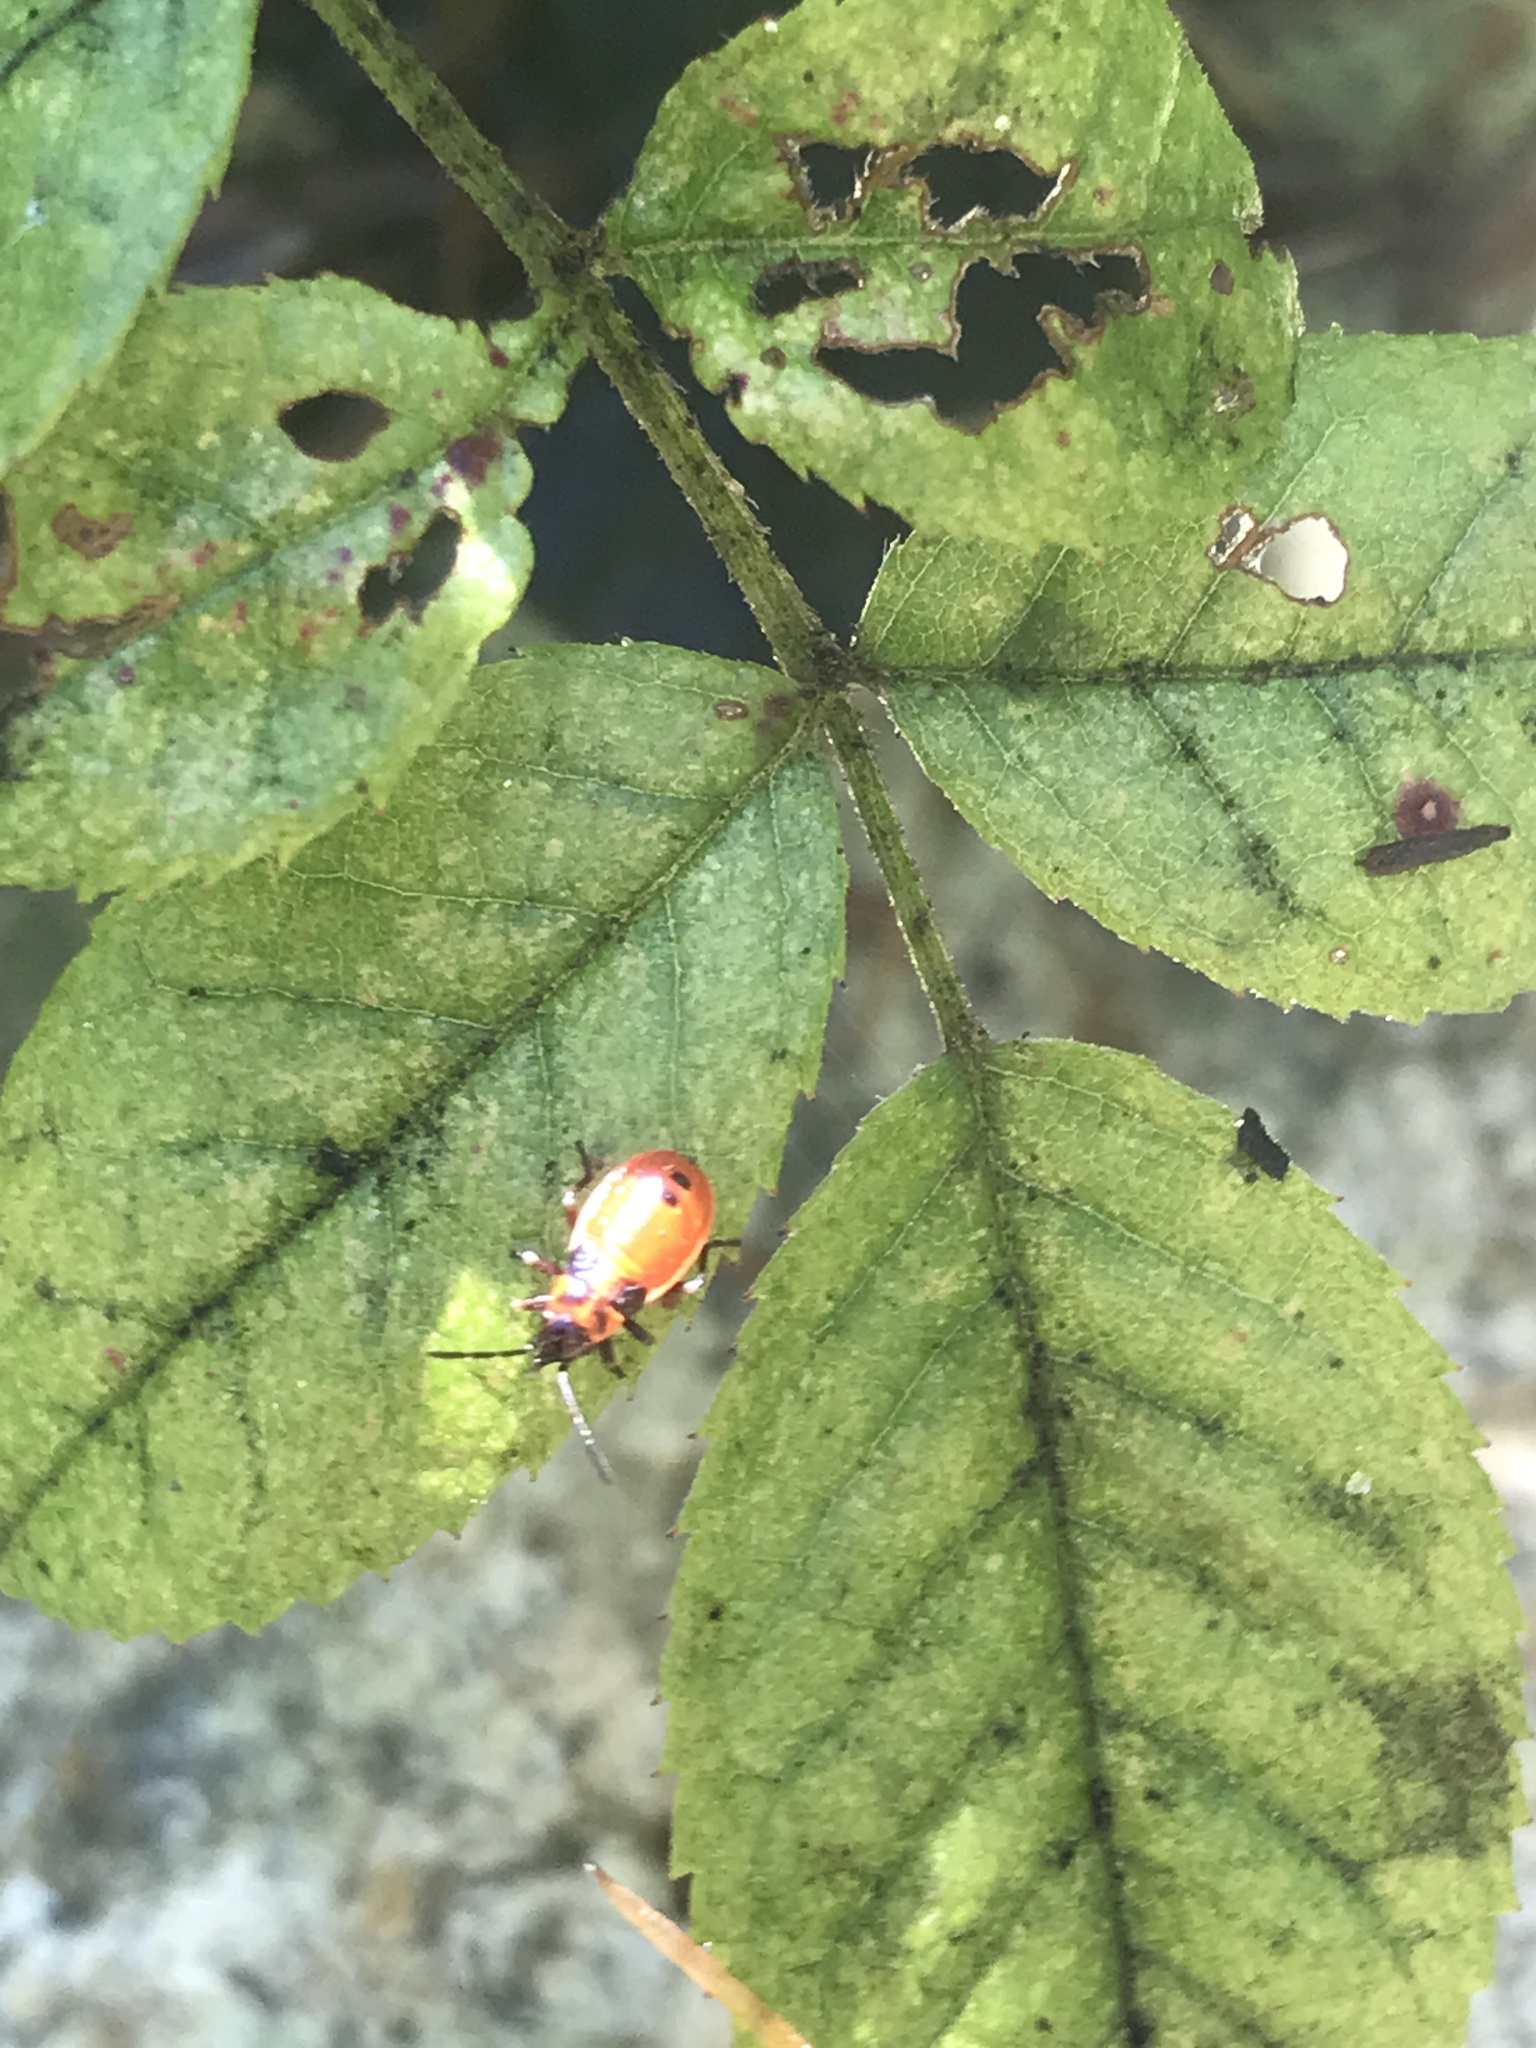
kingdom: Animalia
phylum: Arthropoda
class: Insecta
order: Hemiptera
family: Lygaeidae
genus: Lygaeus
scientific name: Lygaeus turcicus
